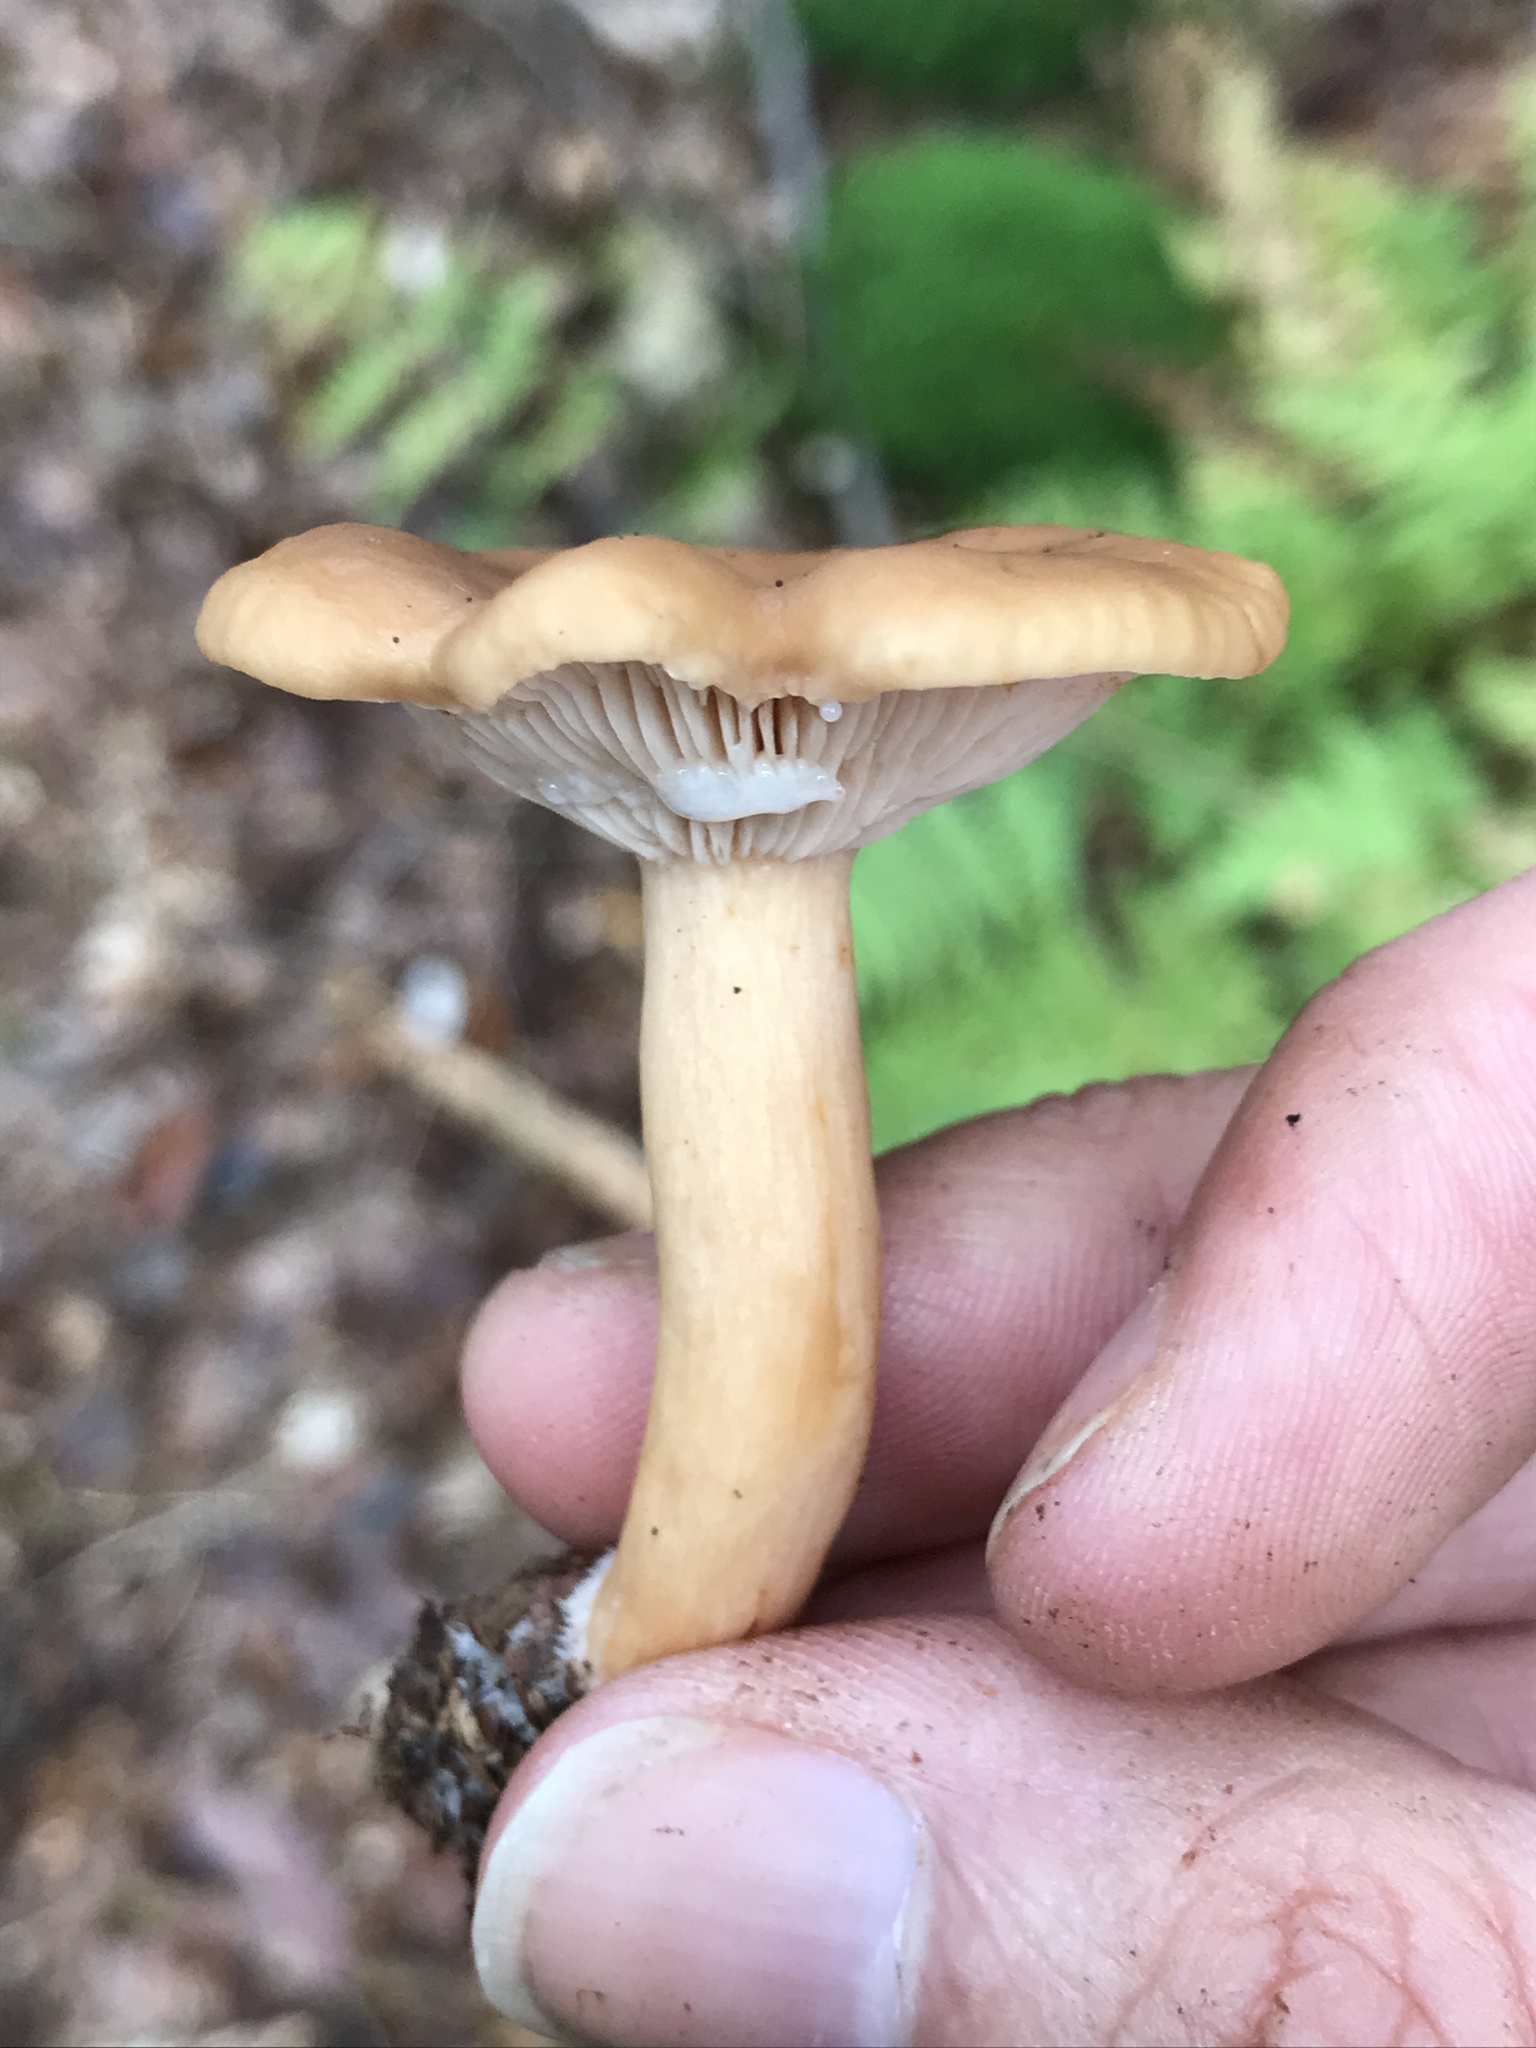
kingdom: Fungi
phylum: Basidiomycota
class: Agaricomycetes
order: Russulales
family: Russulaceae
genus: Lactarius
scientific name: Lactarius rufus
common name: Rufous milk-cap
